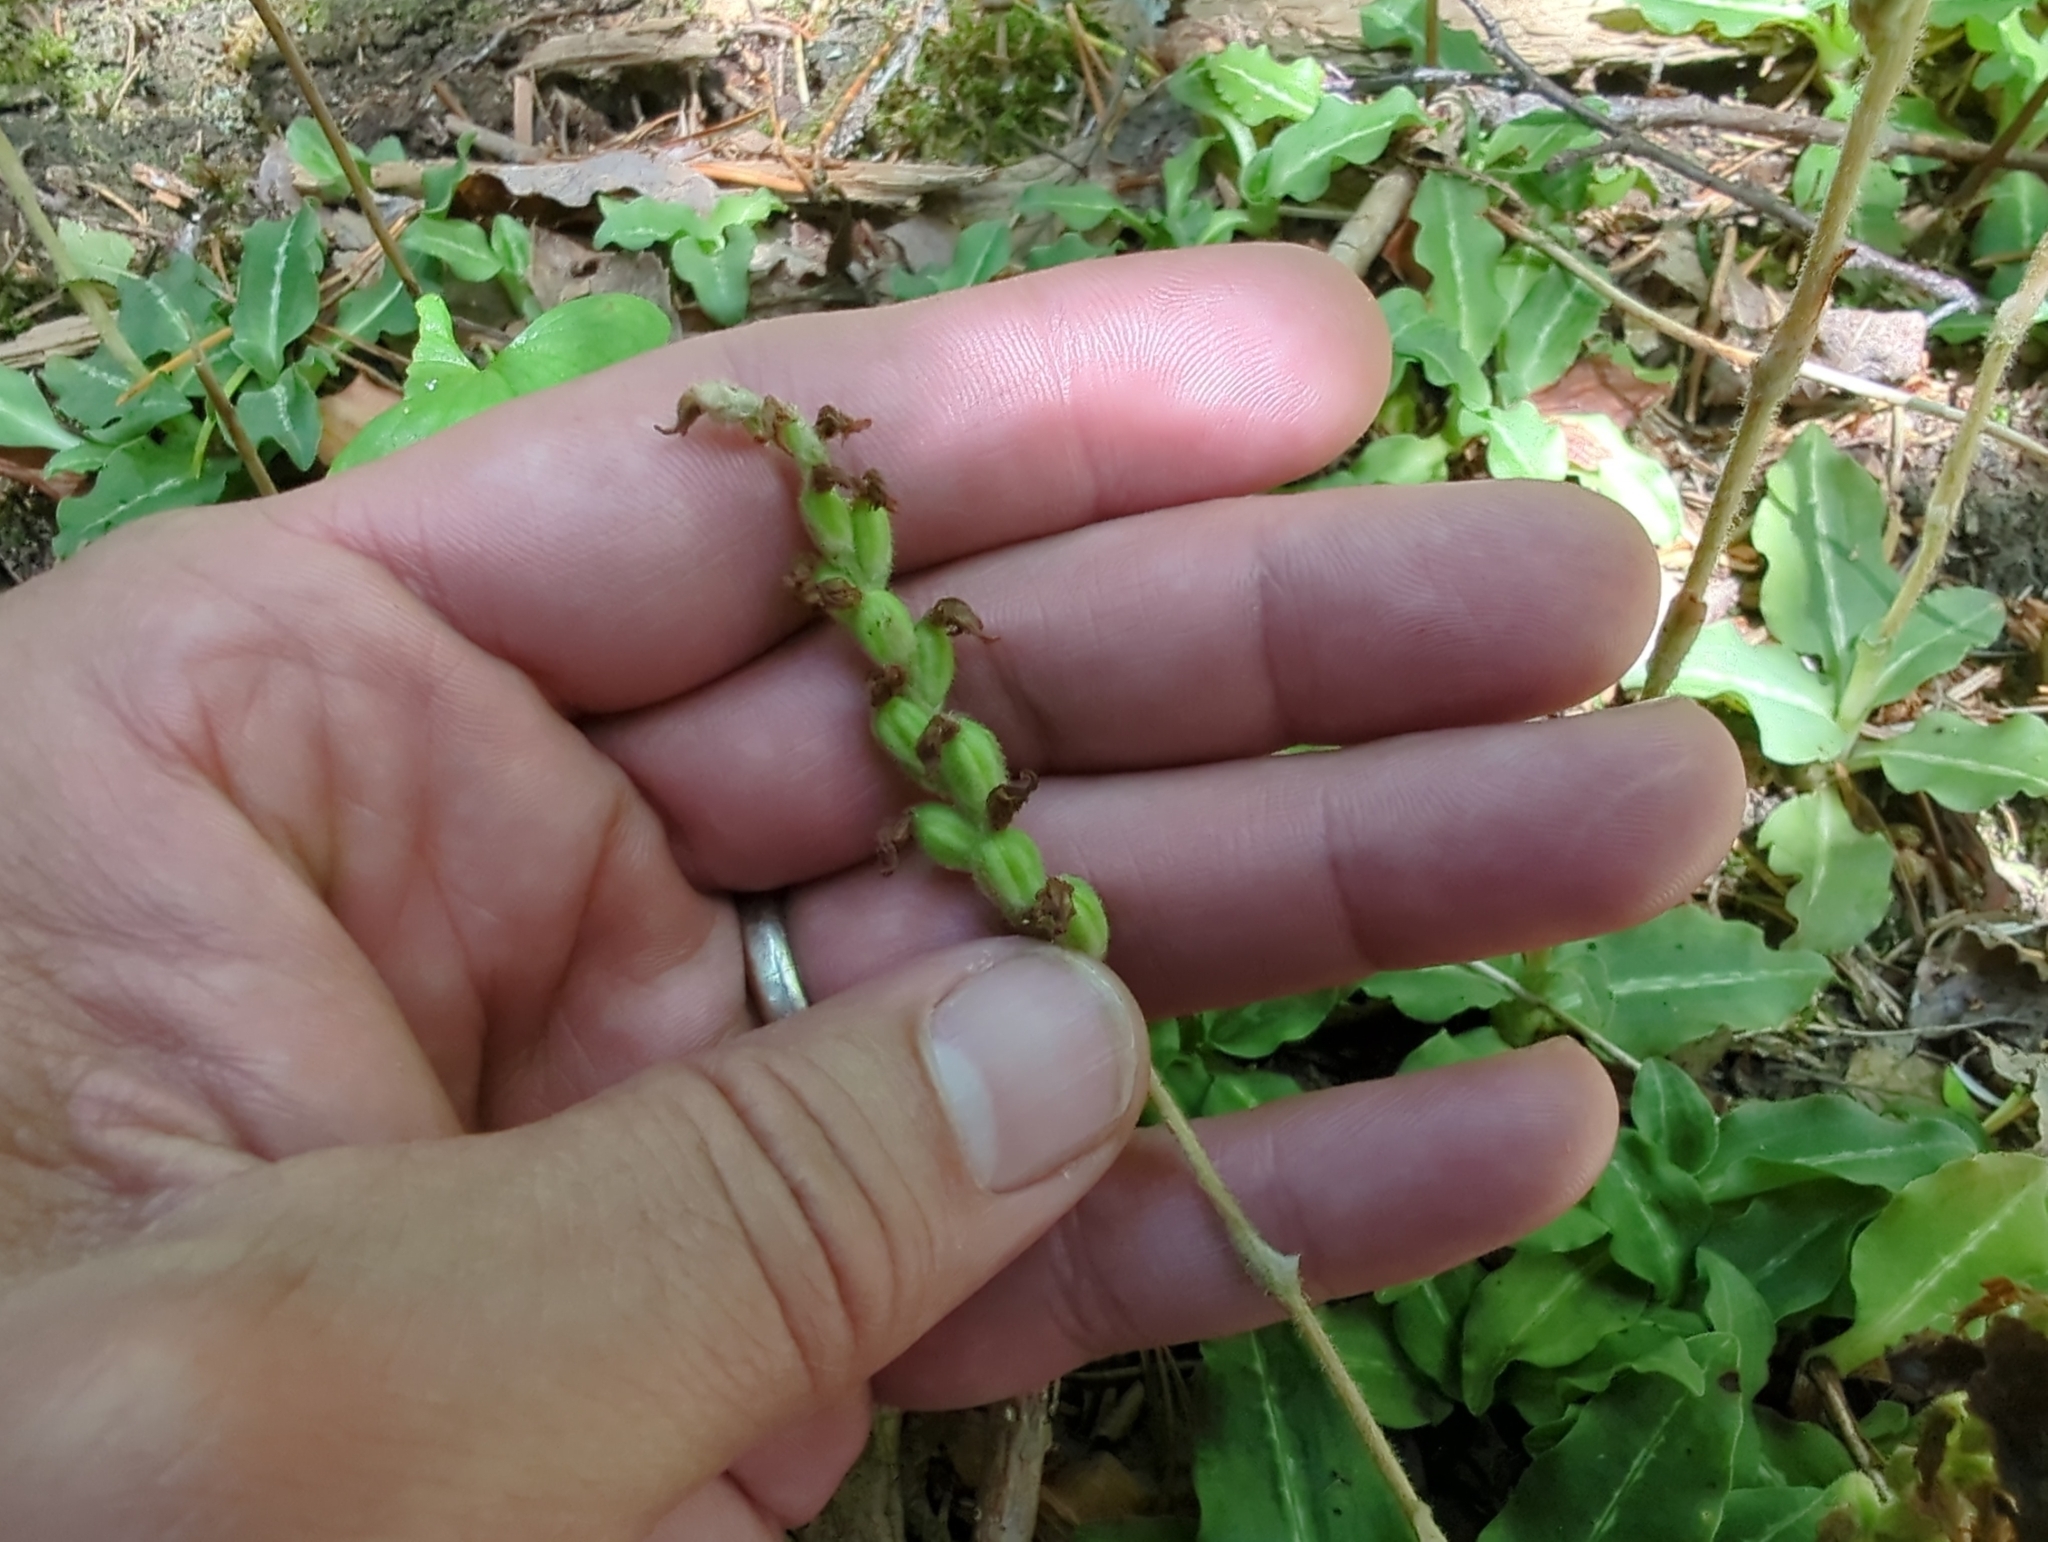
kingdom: Plantae
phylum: Tracheophyta
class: Liliopsida
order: Asparagales
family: Orchidaceae
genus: Goodyera
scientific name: Goodyera oblongifolia
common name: Giant rattlesnake-plantain
